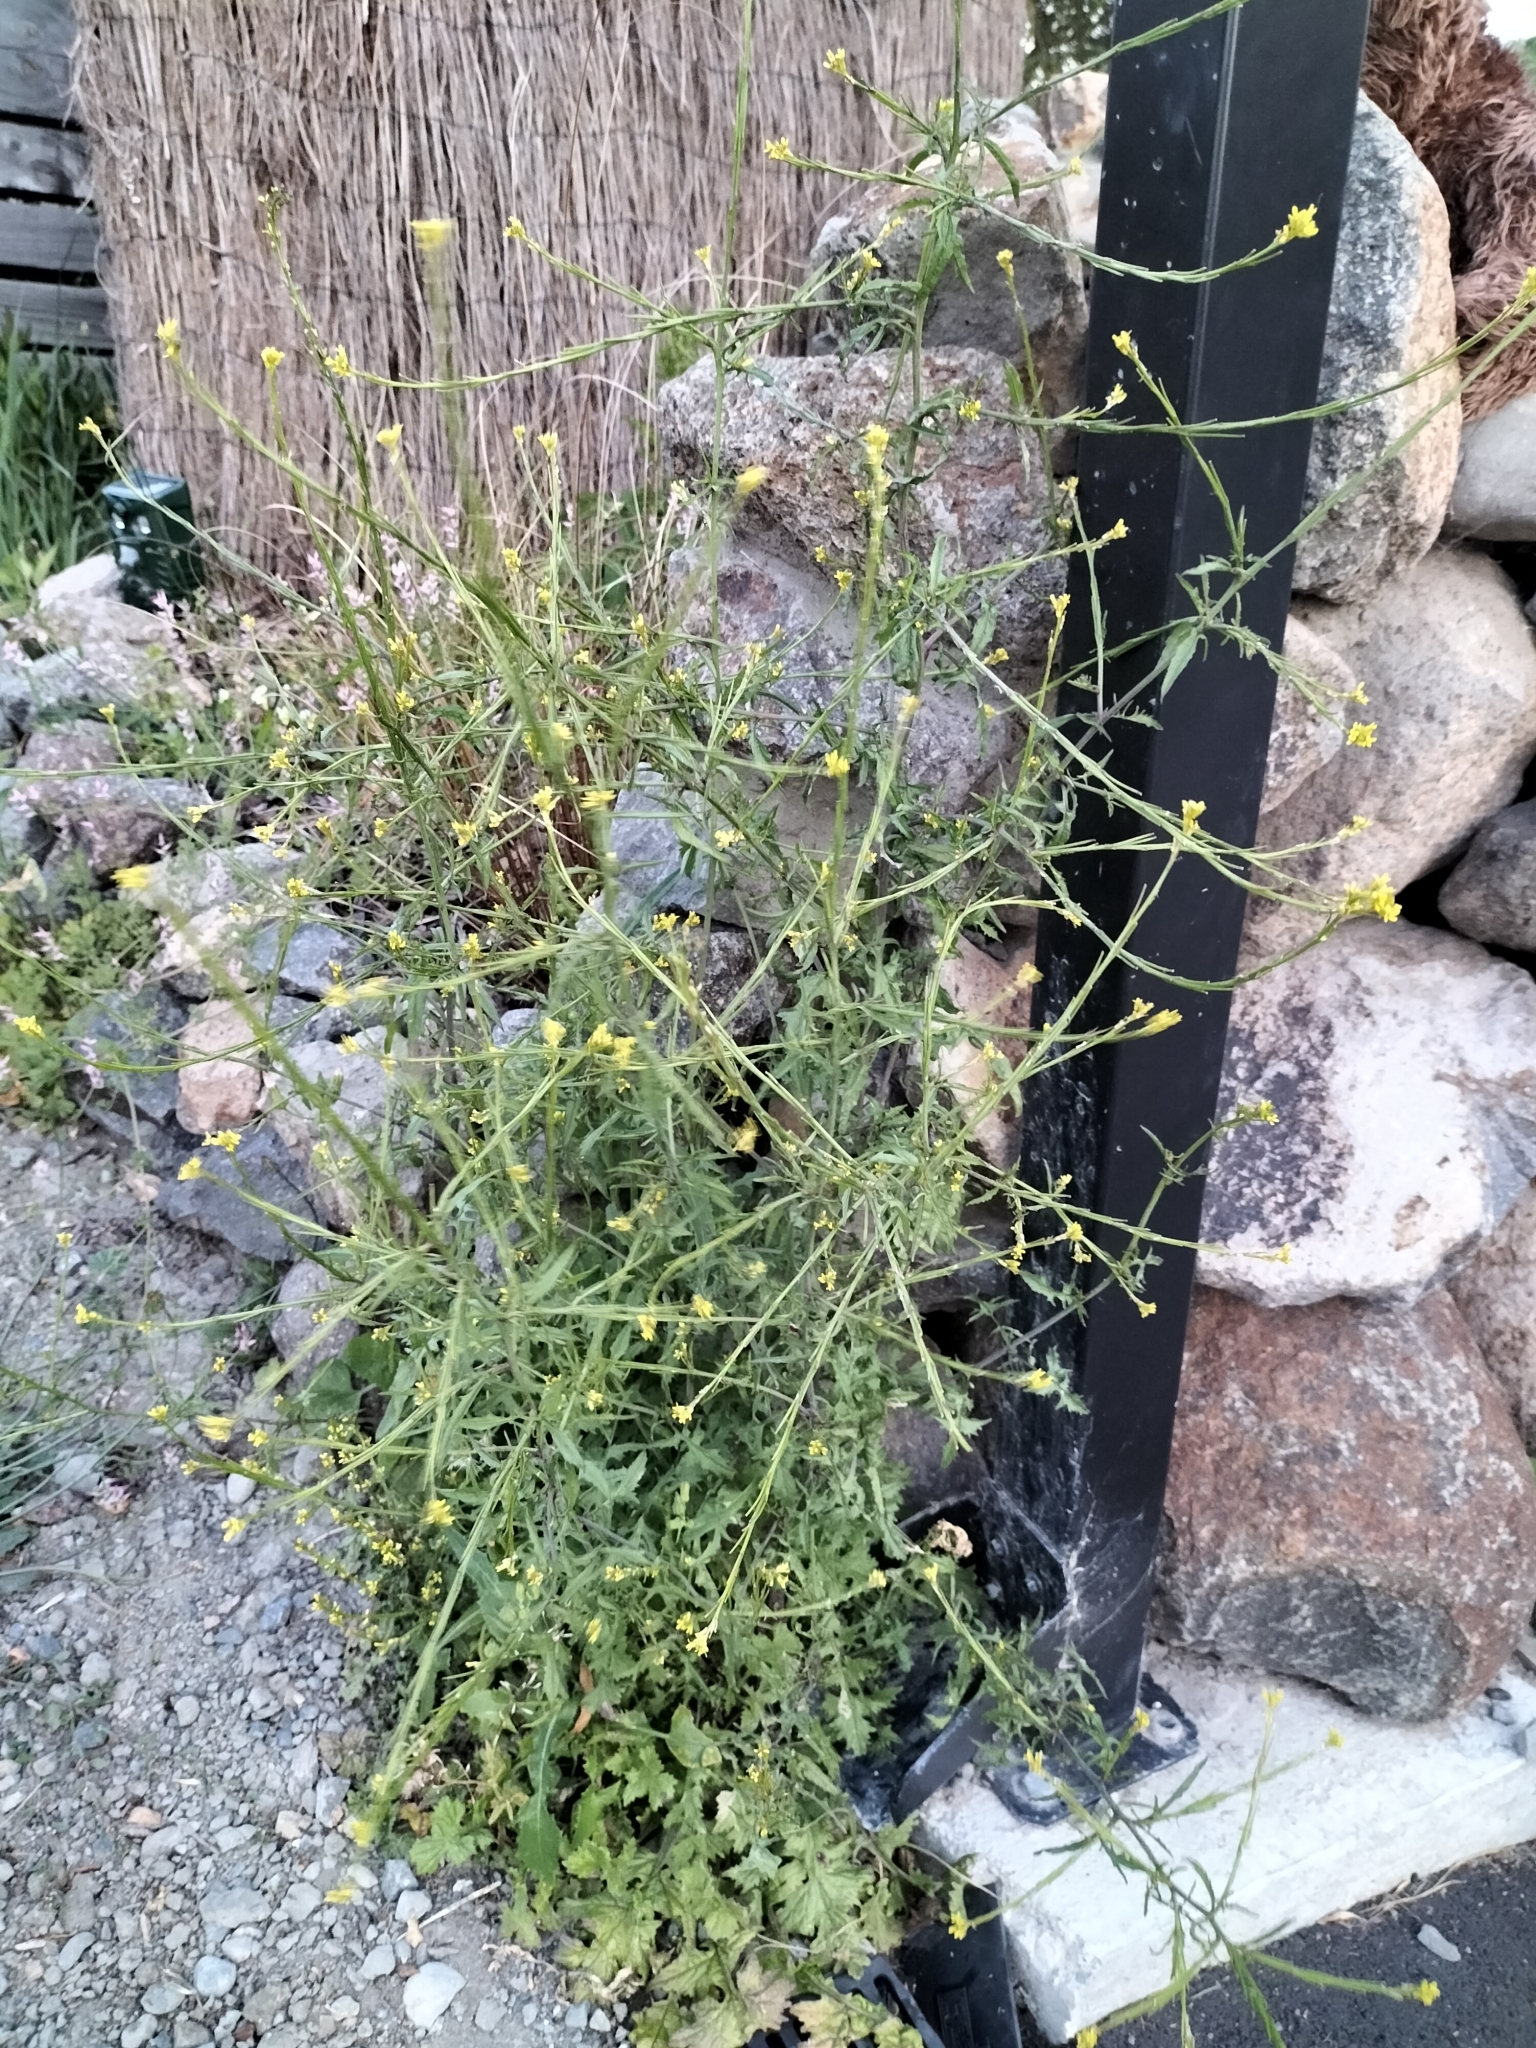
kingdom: Plantae
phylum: Tracheophyta
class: Magnoliopsida
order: Brassicales
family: Brassicaceae
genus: Sisymbrium
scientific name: Sisymbrium officinale
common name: Hedge mustard
